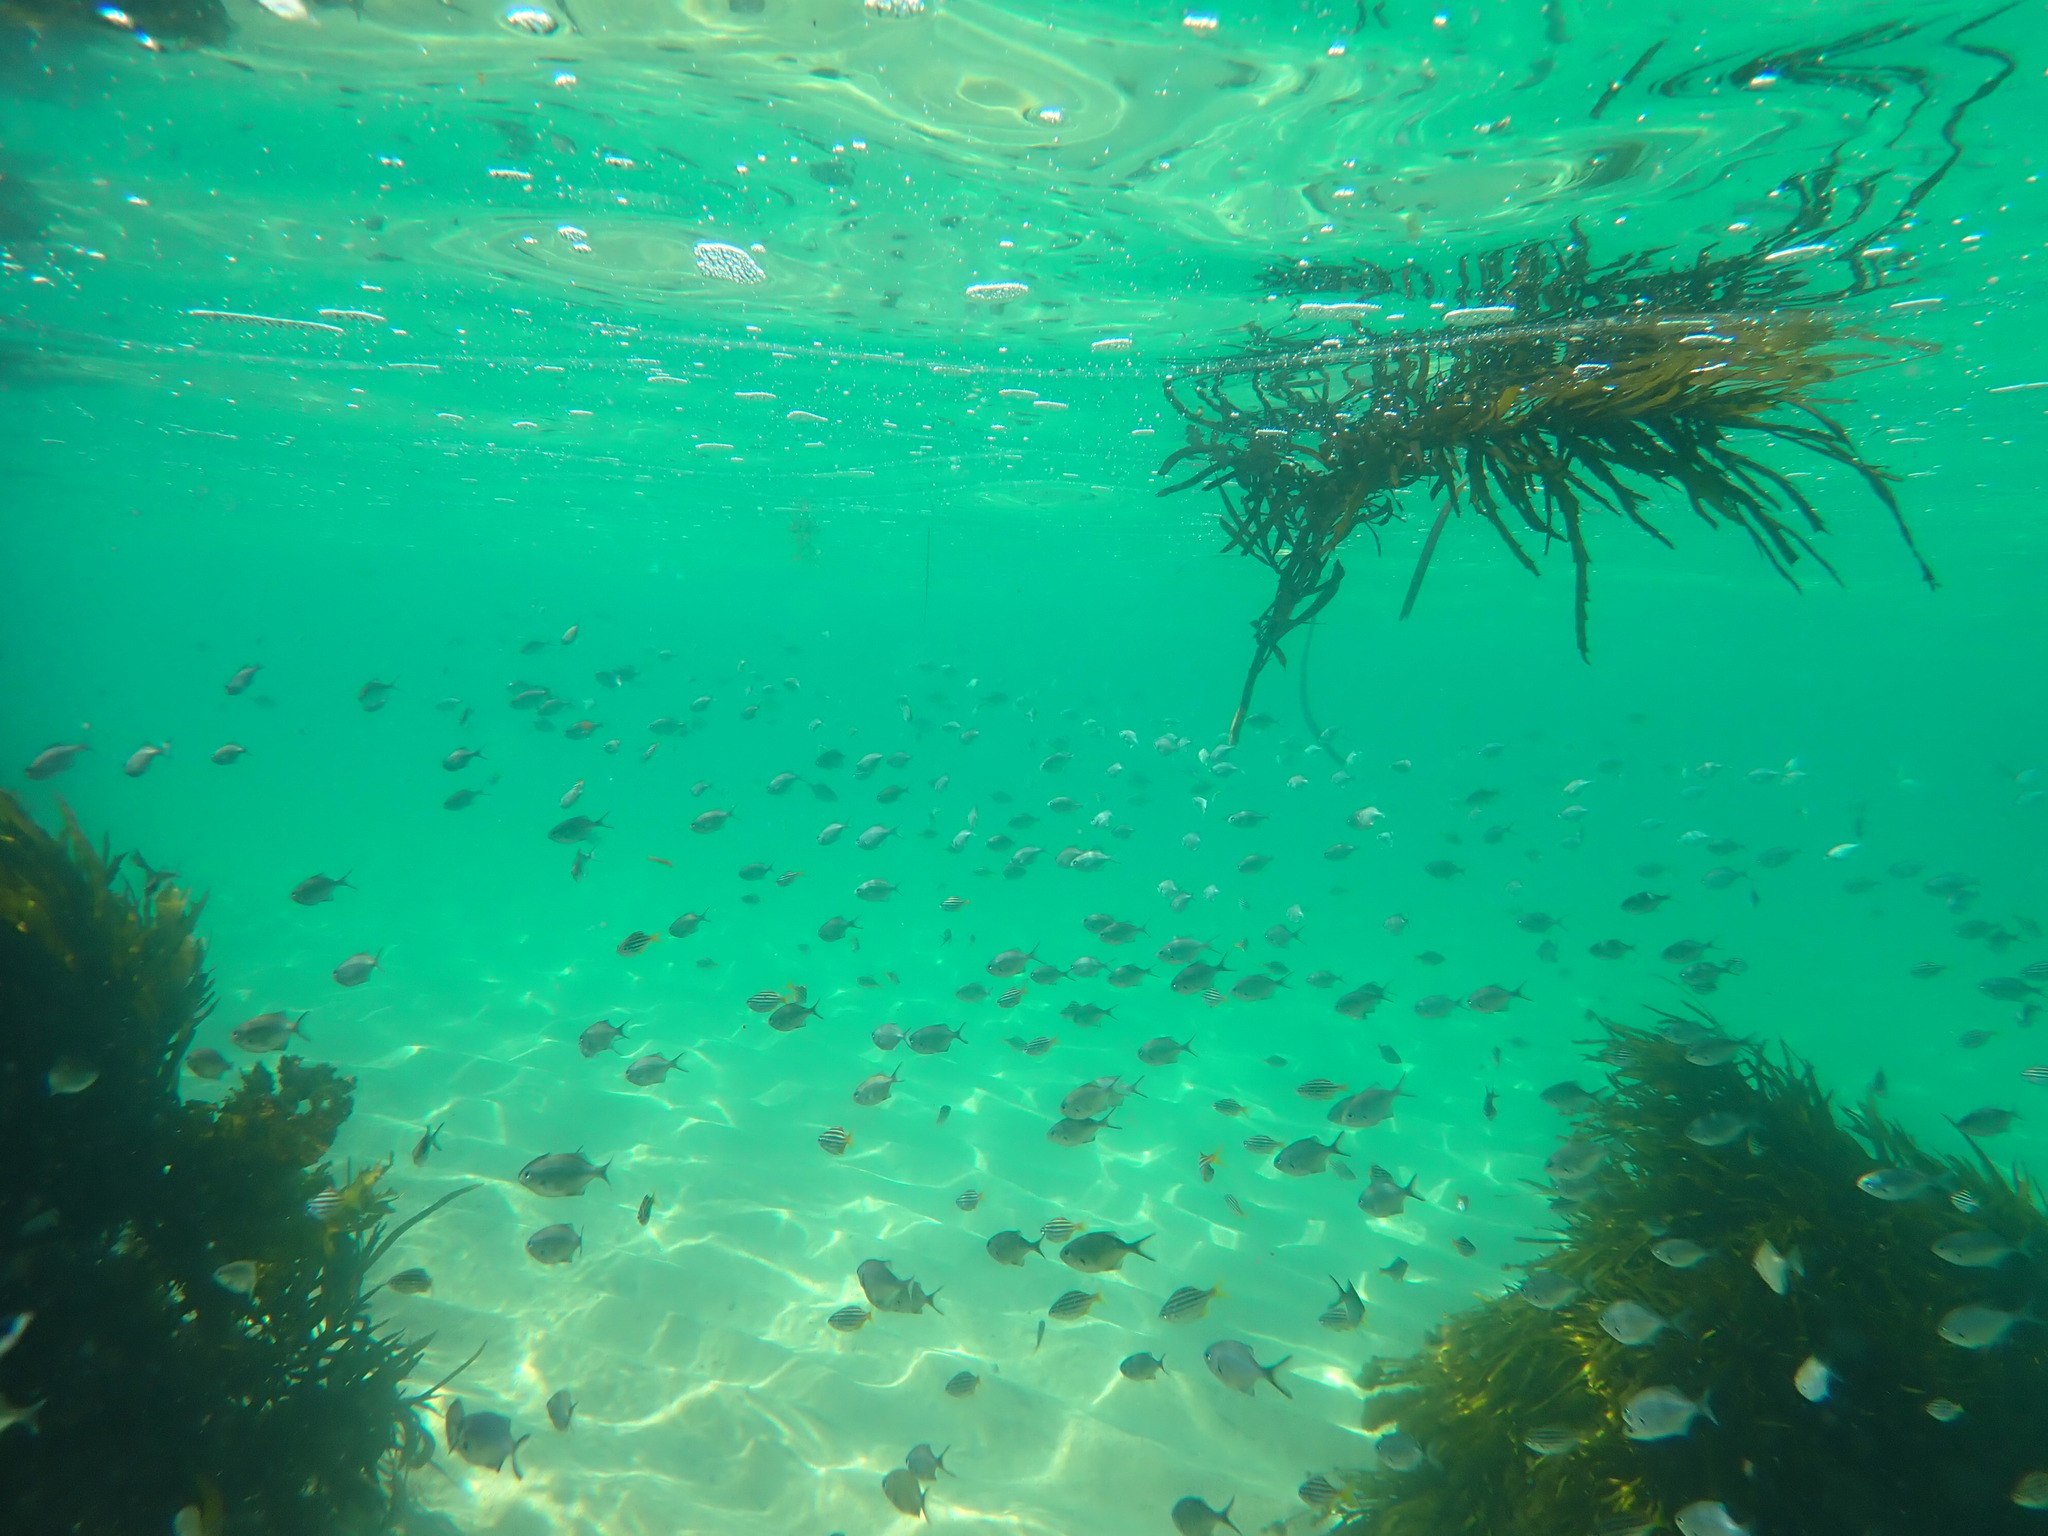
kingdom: Animalia
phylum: Chordata
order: Perciformes
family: Kyphosidae
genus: Scorpis
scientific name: Scorpis lineolata
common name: Sweep
